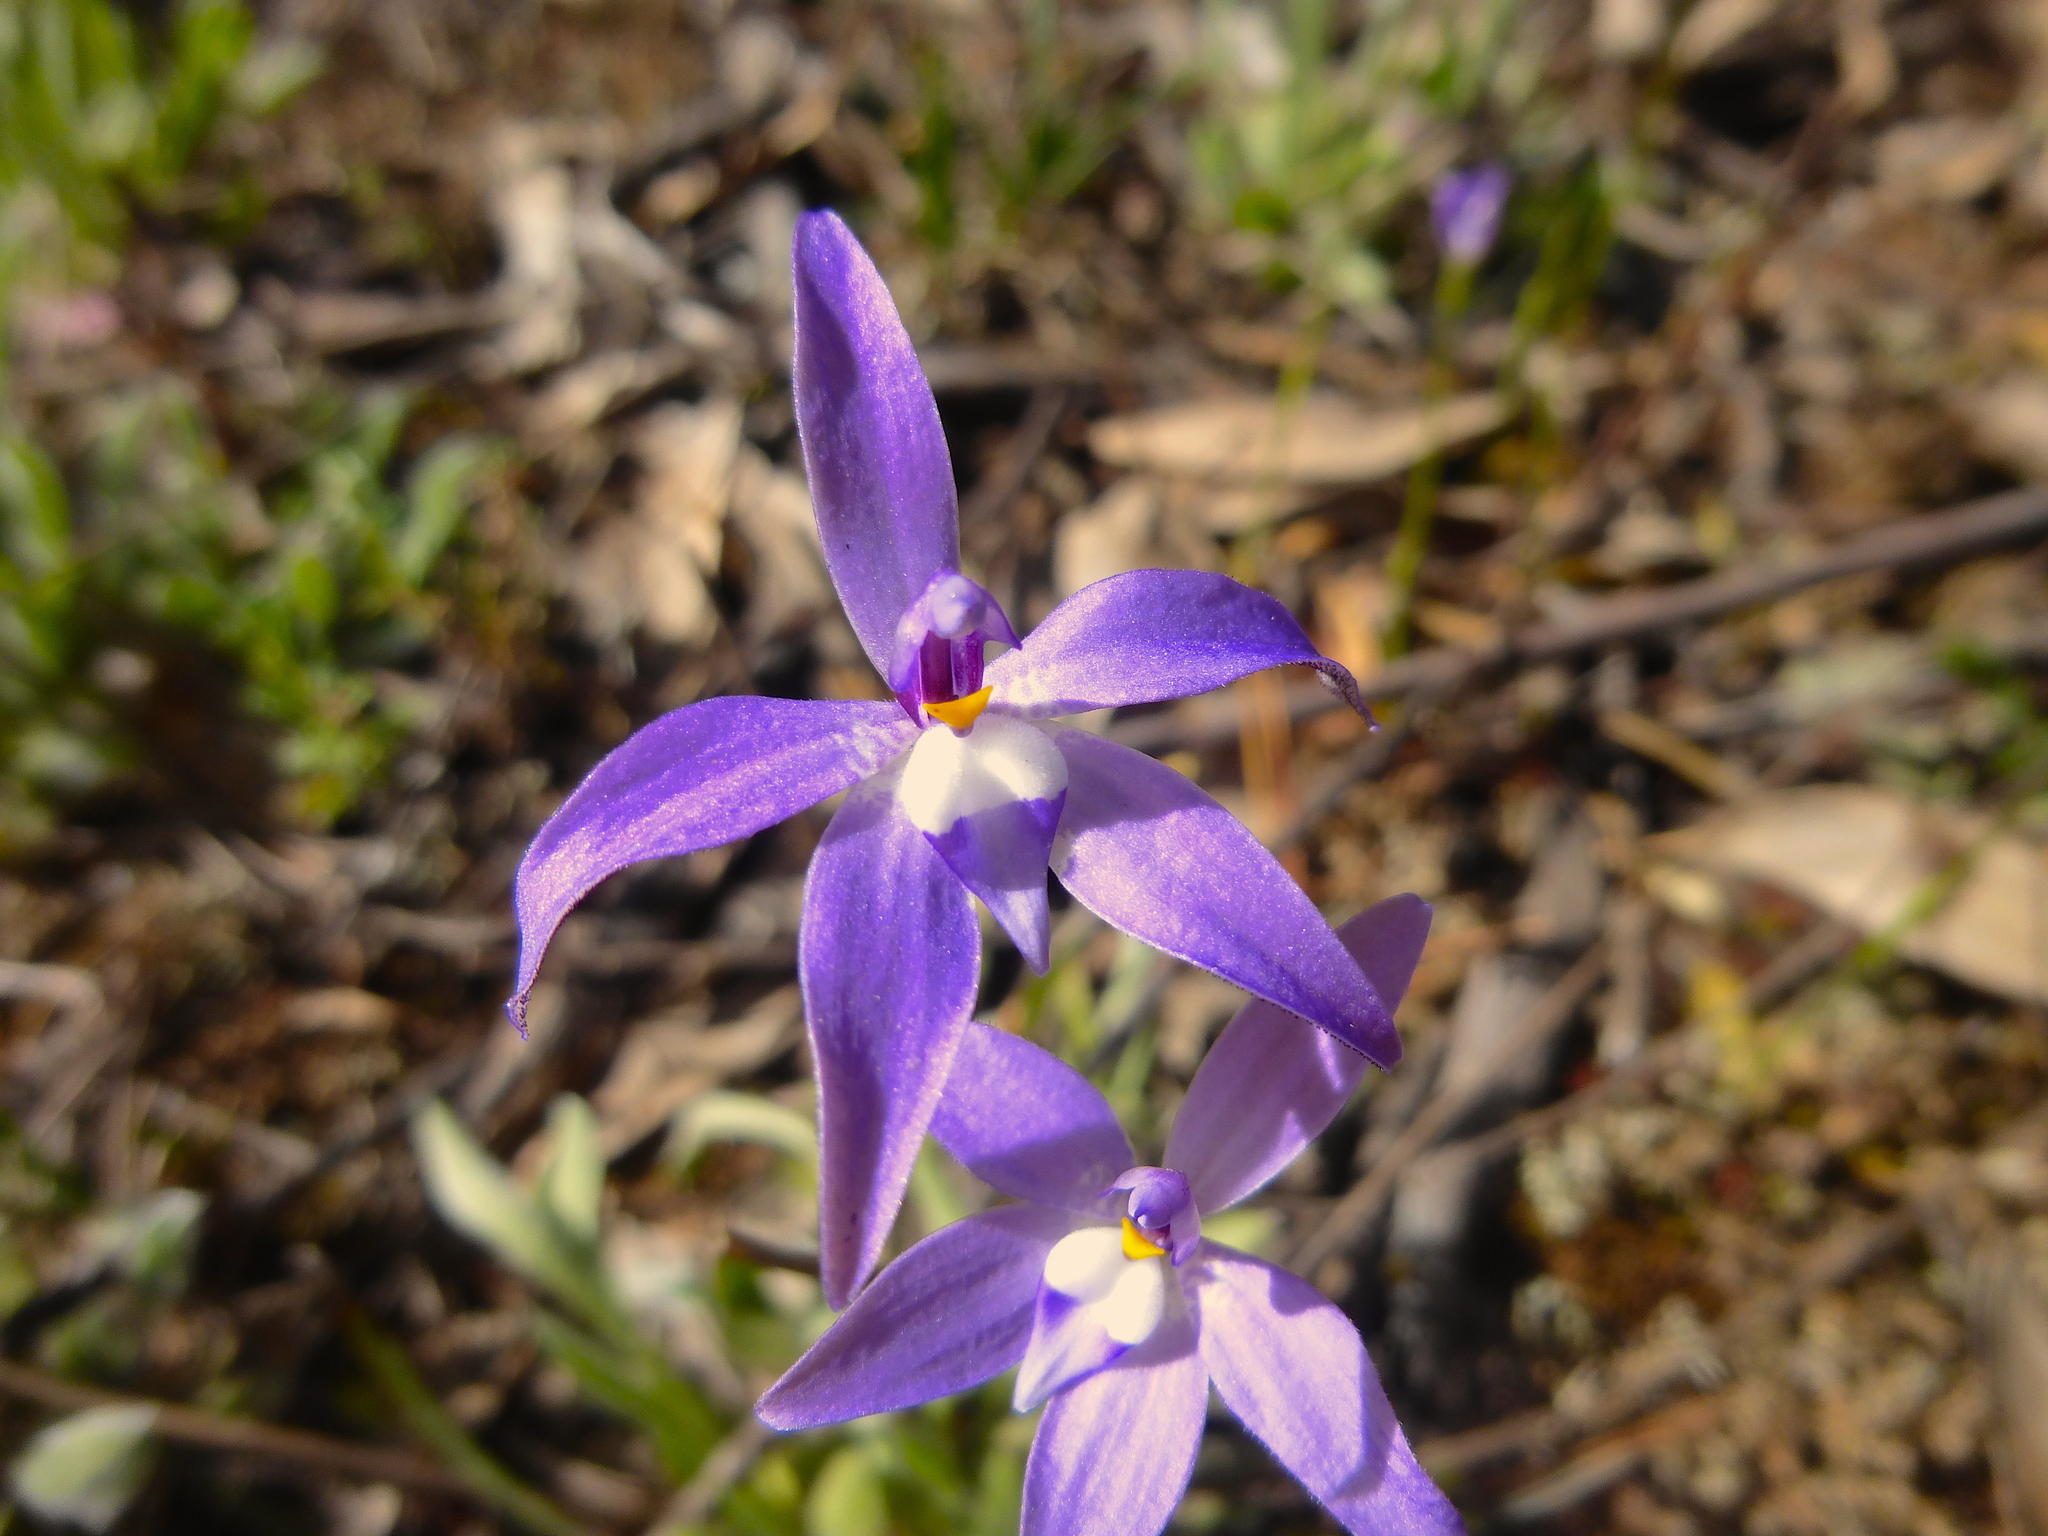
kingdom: Plantae
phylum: Tracheophyta
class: Liliopsida
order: Asparagales
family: Orchidaceae
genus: Caladenia
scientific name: Caladenia major
